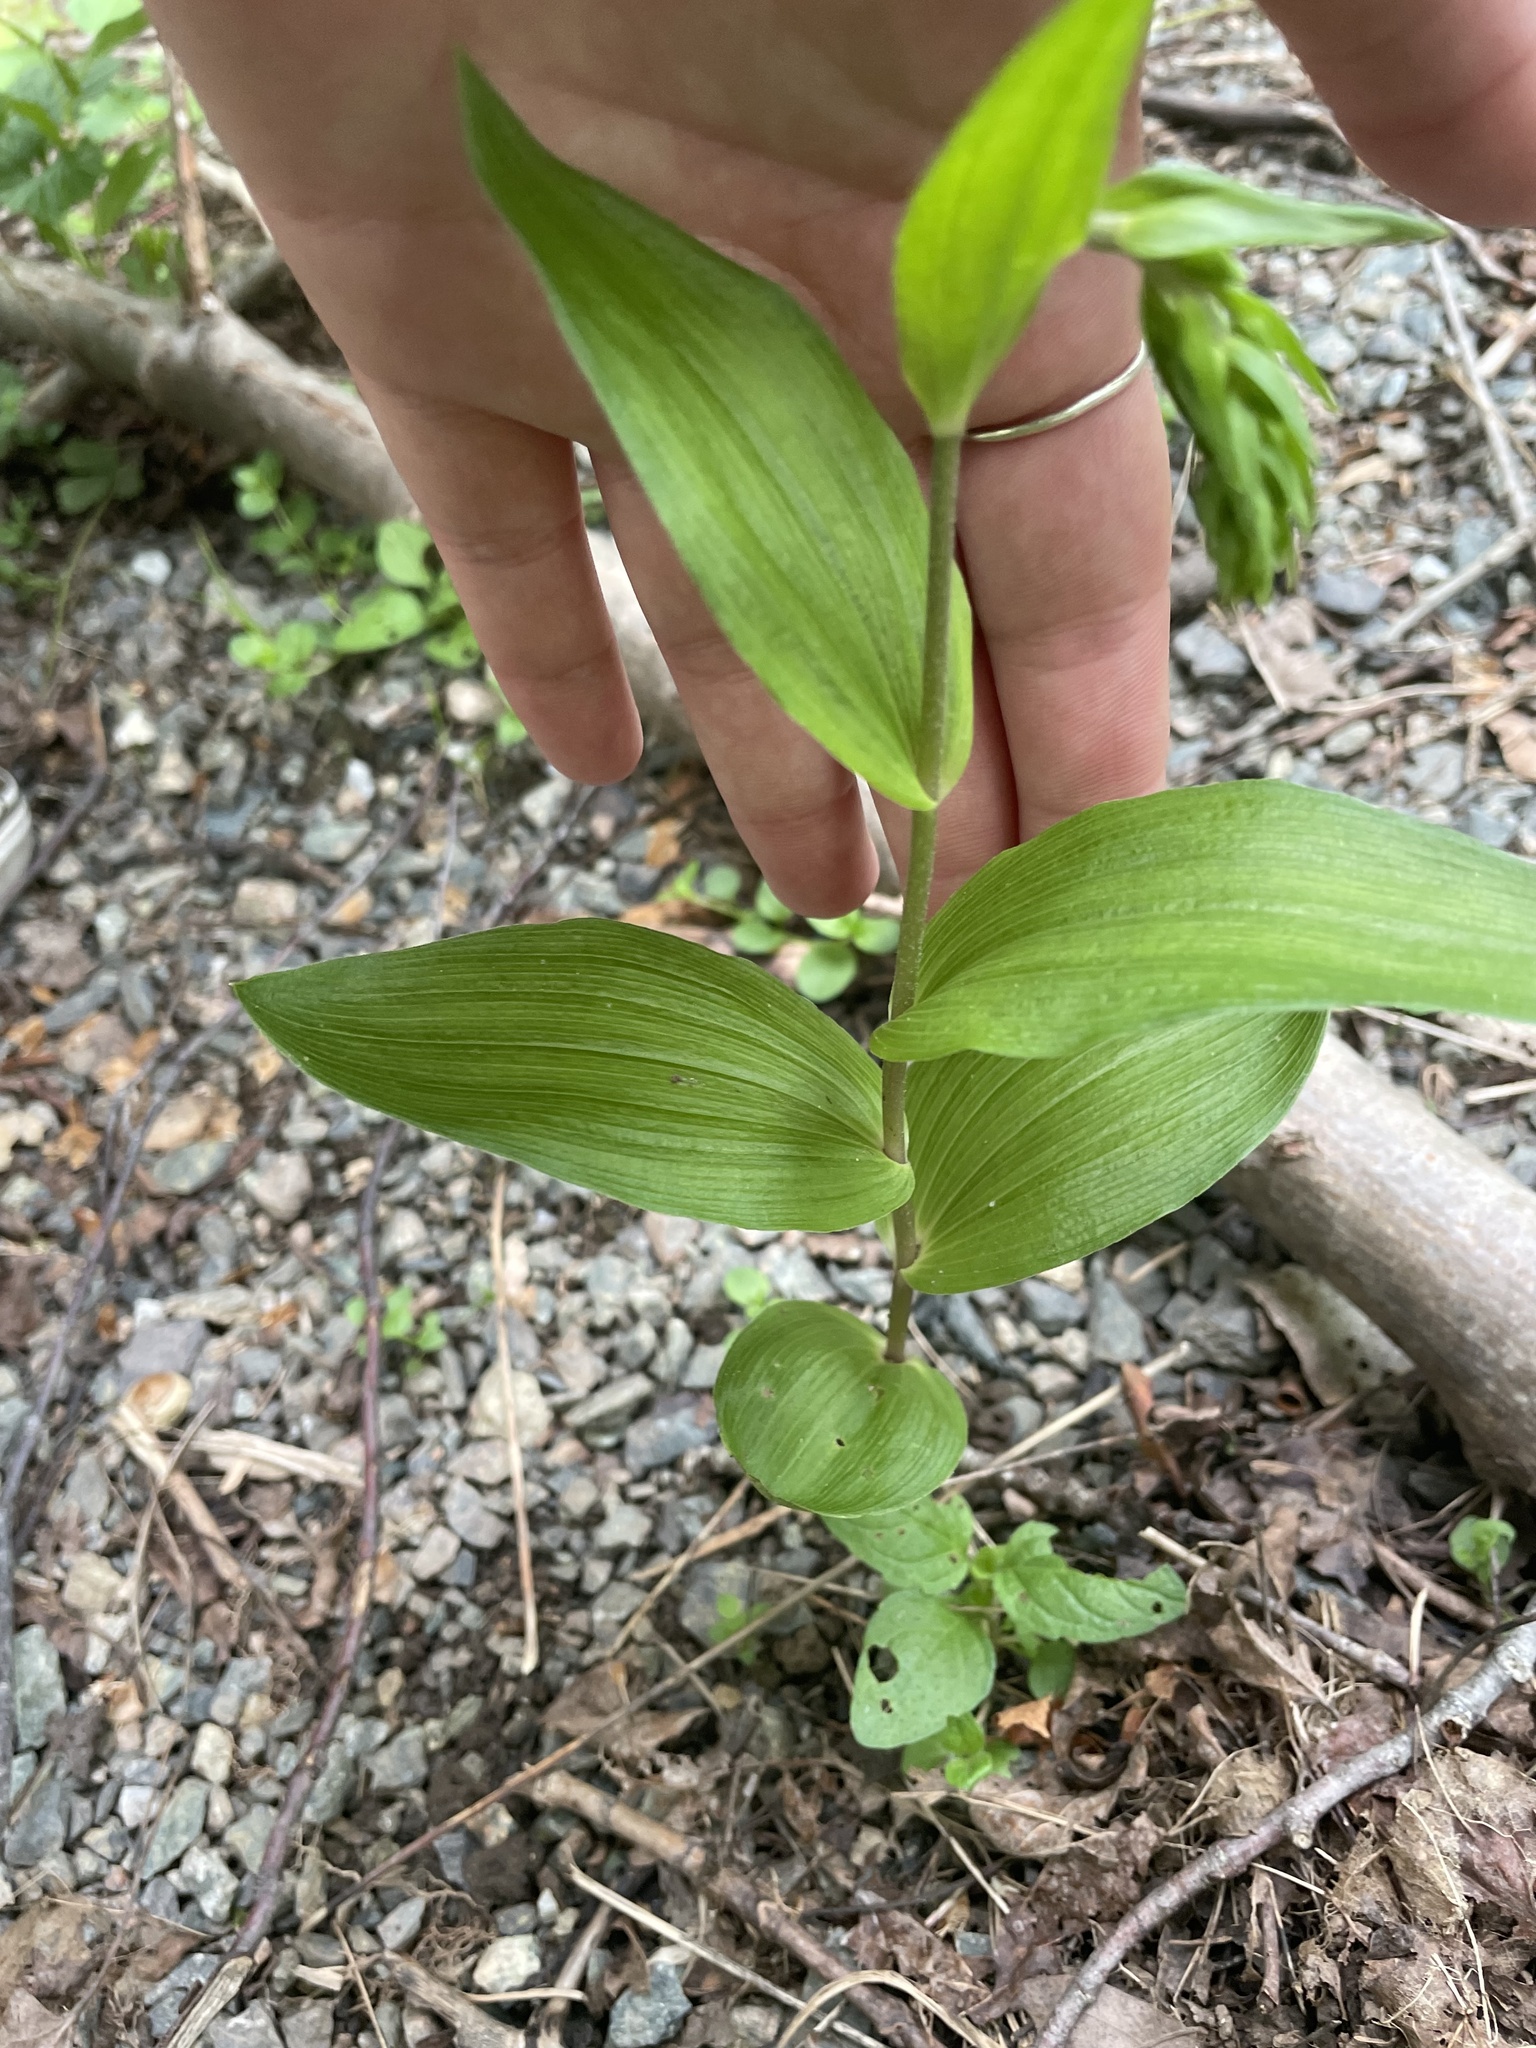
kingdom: Plantae
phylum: Tracheophyta
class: Liliopsida
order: Asparagales
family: Orchidaceae
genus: Epipactis
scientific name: Epipactis helleborine
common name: Broad-leaved helleborine
